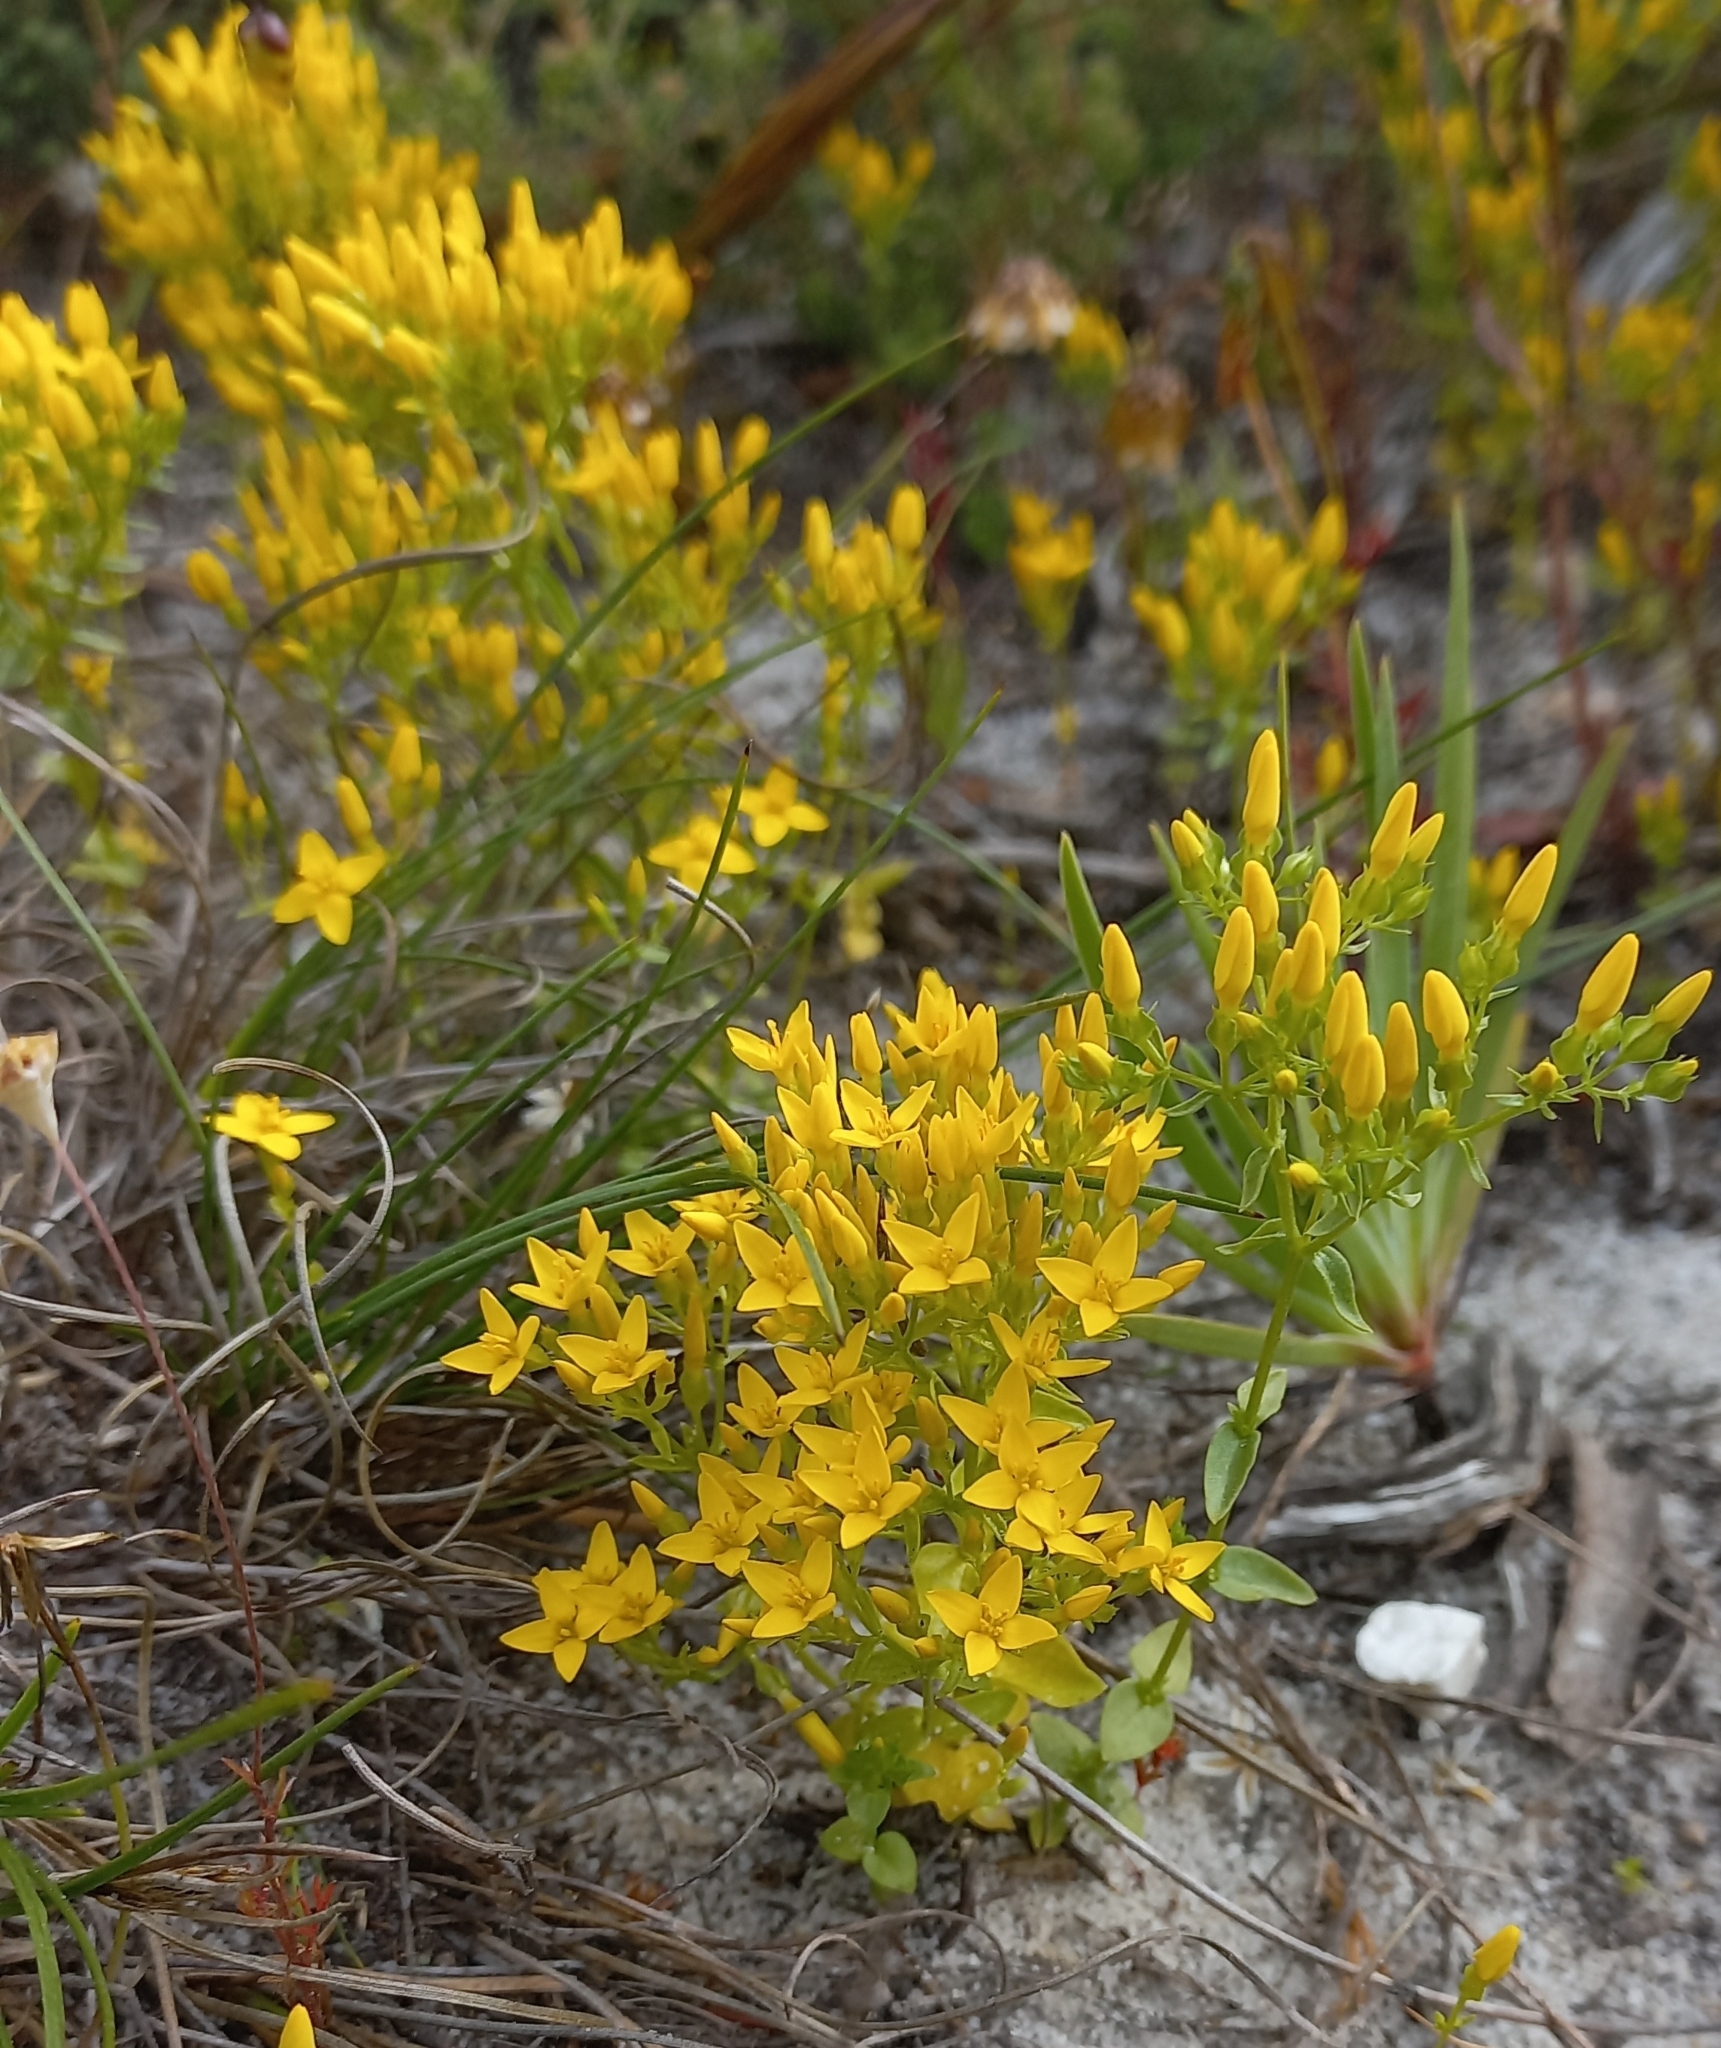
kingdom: Plantae
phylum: Tracheophyta
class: Magnoliopsida
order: Gentianales
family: Gentianaceae
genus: Sebaea
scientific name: Sebaea aurea
